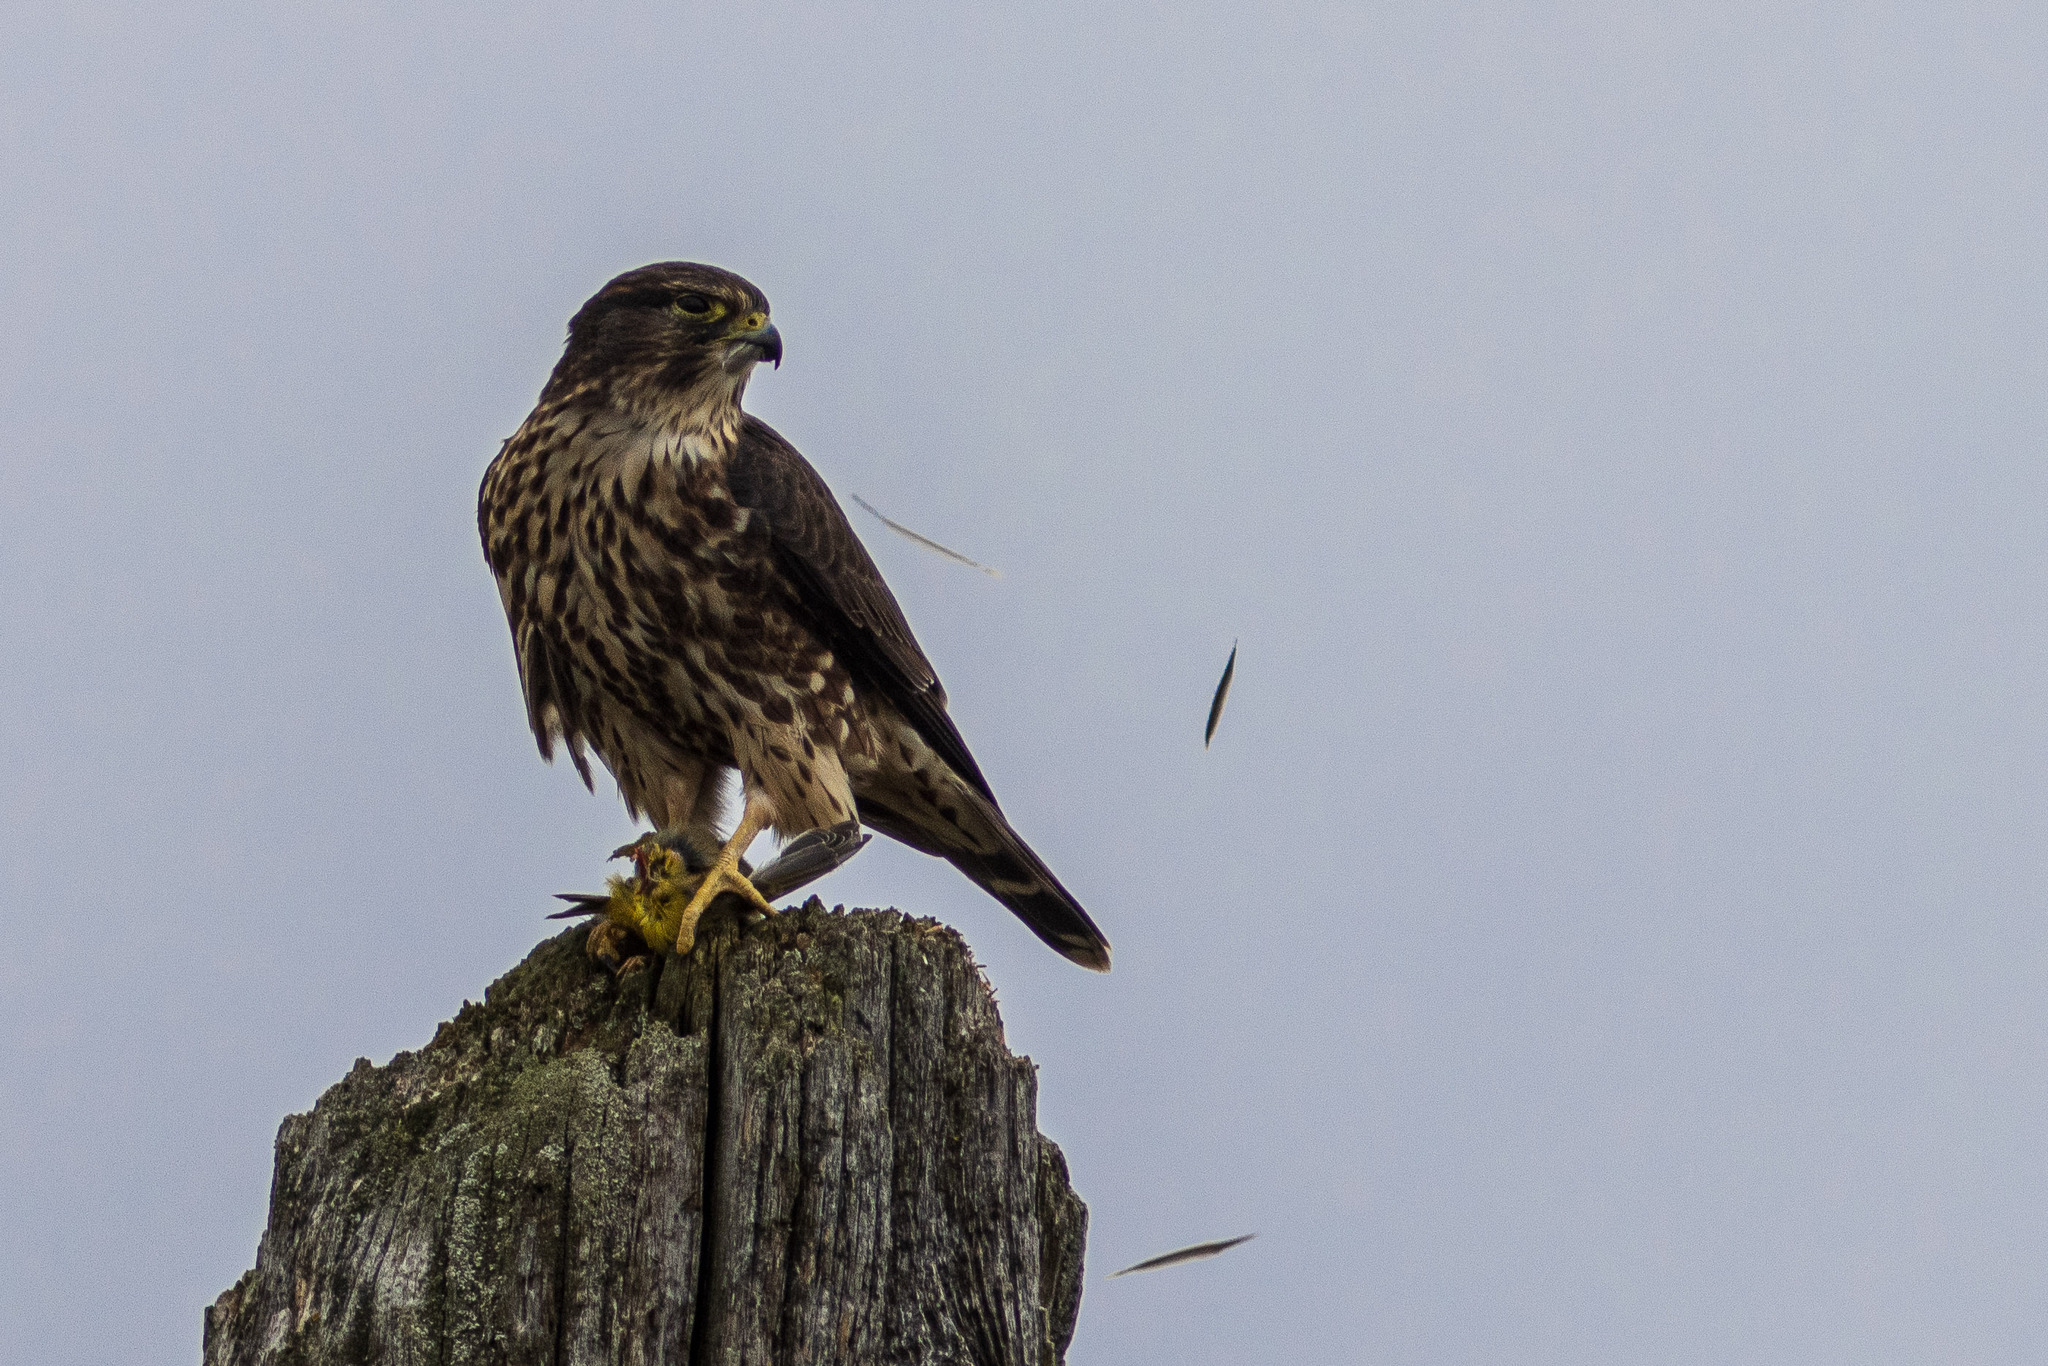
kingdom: Animalia
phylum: Chordata
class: Aves
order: Falconiformes
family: Falconidae
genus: Falco
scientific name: Falco columbarius
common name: Merlin
